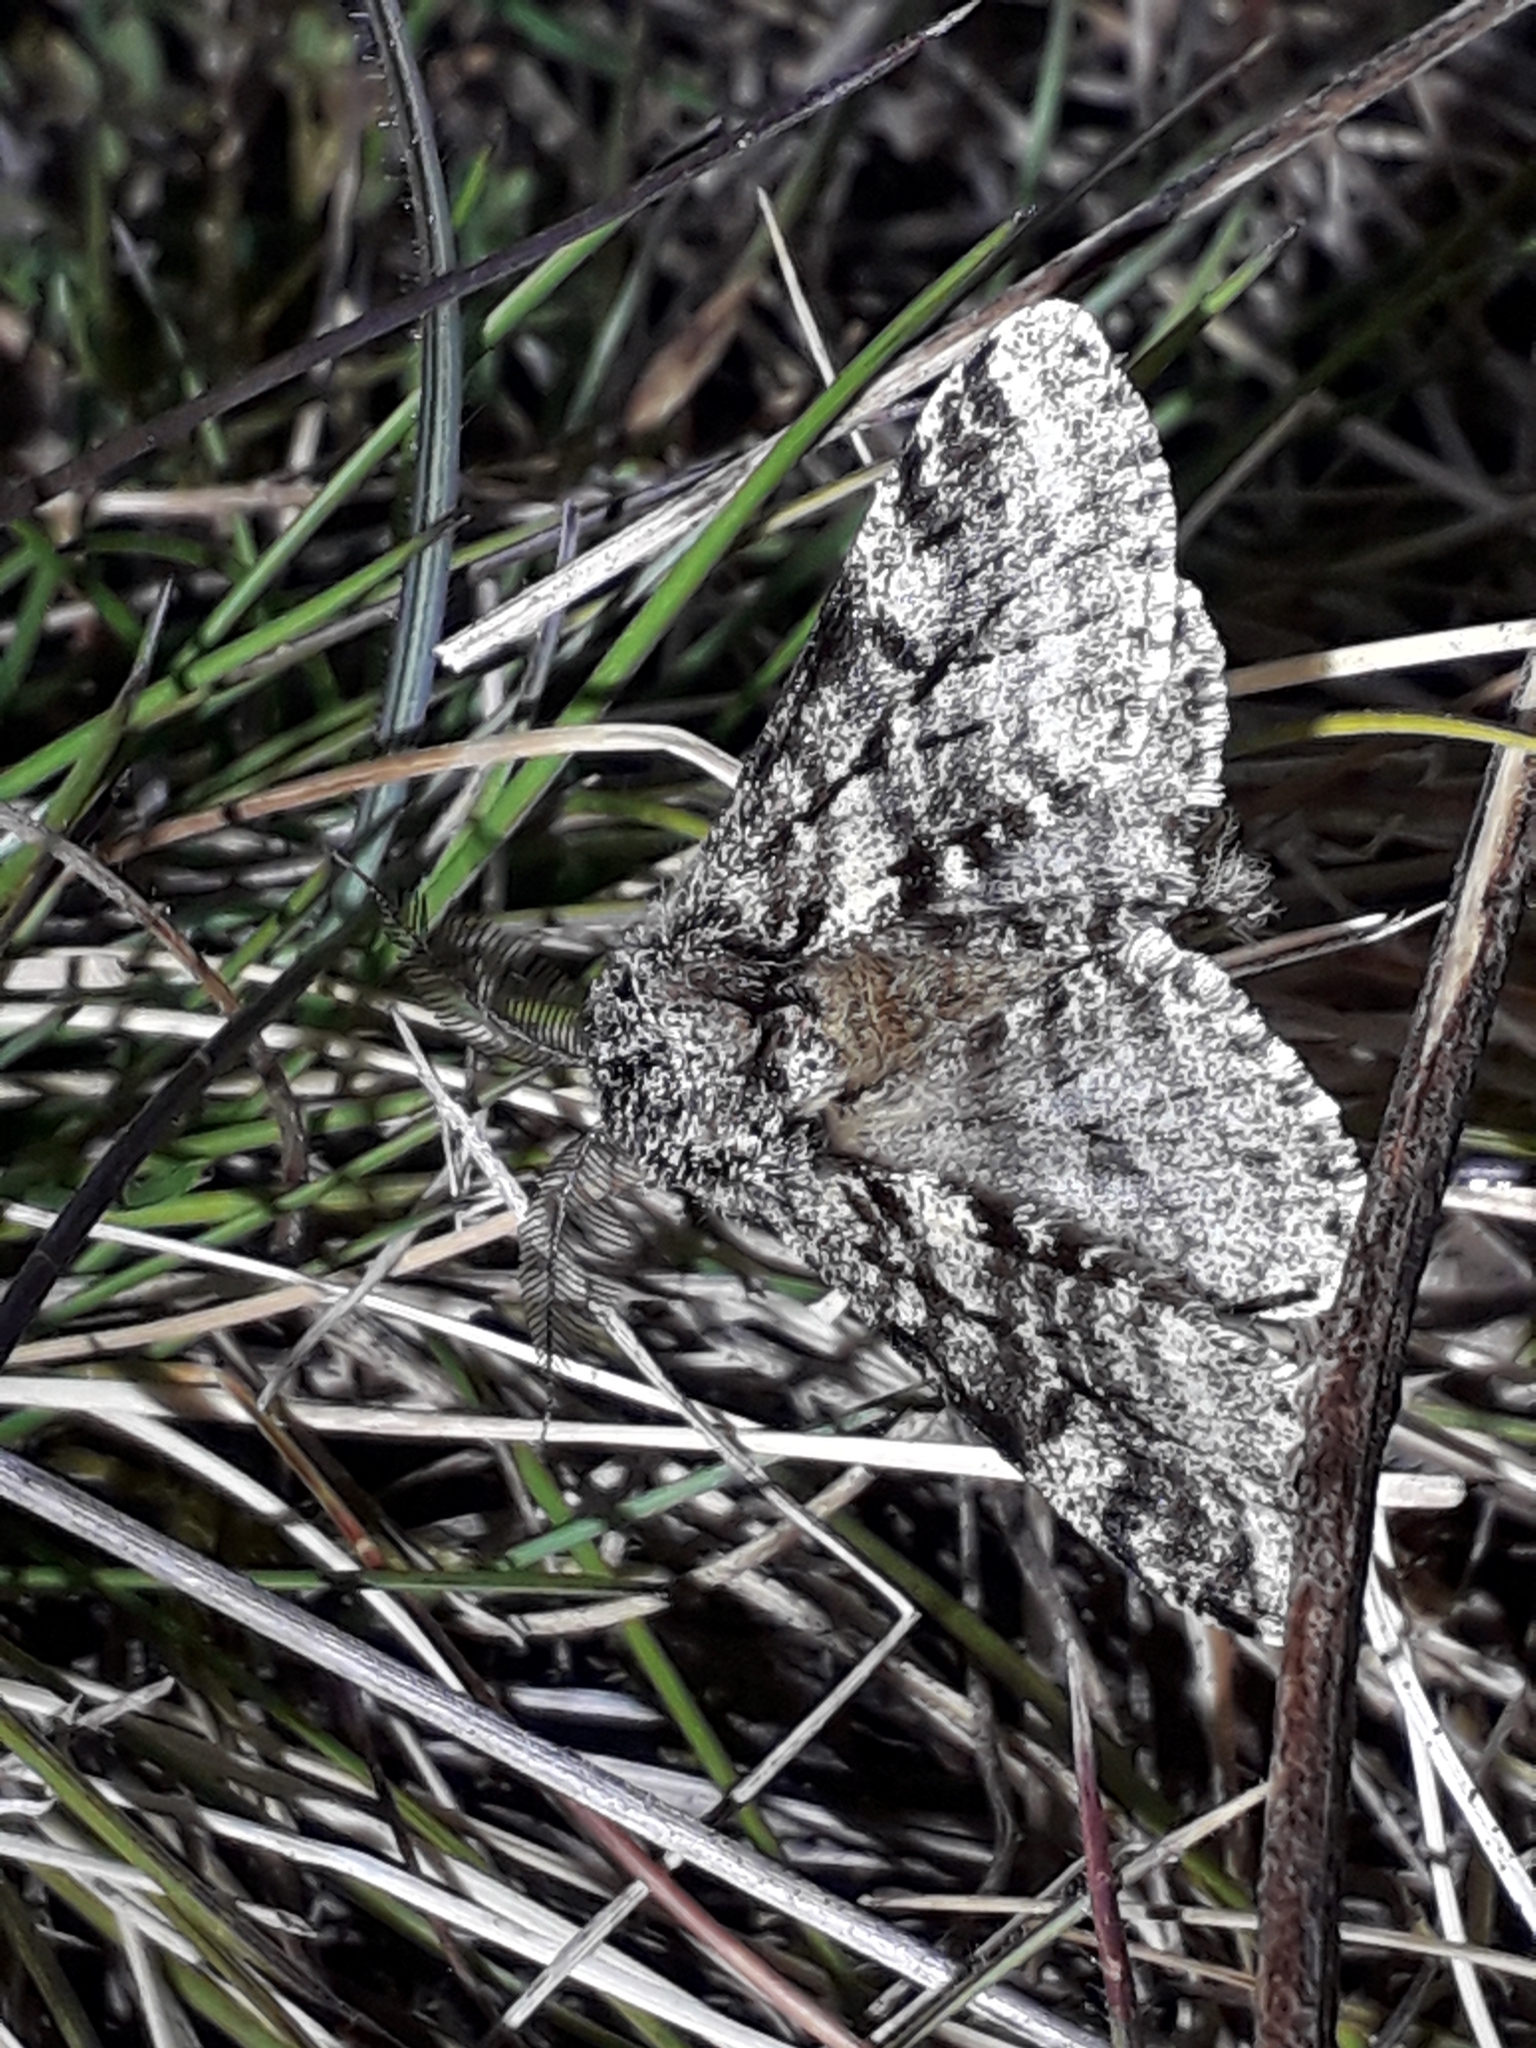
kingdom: Animalia
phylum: Arthropoda
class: Insecta
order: Lepidoptera
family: Geometridae
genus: Lycia
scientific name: Lycia hirtaria
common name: Brindled beauty
